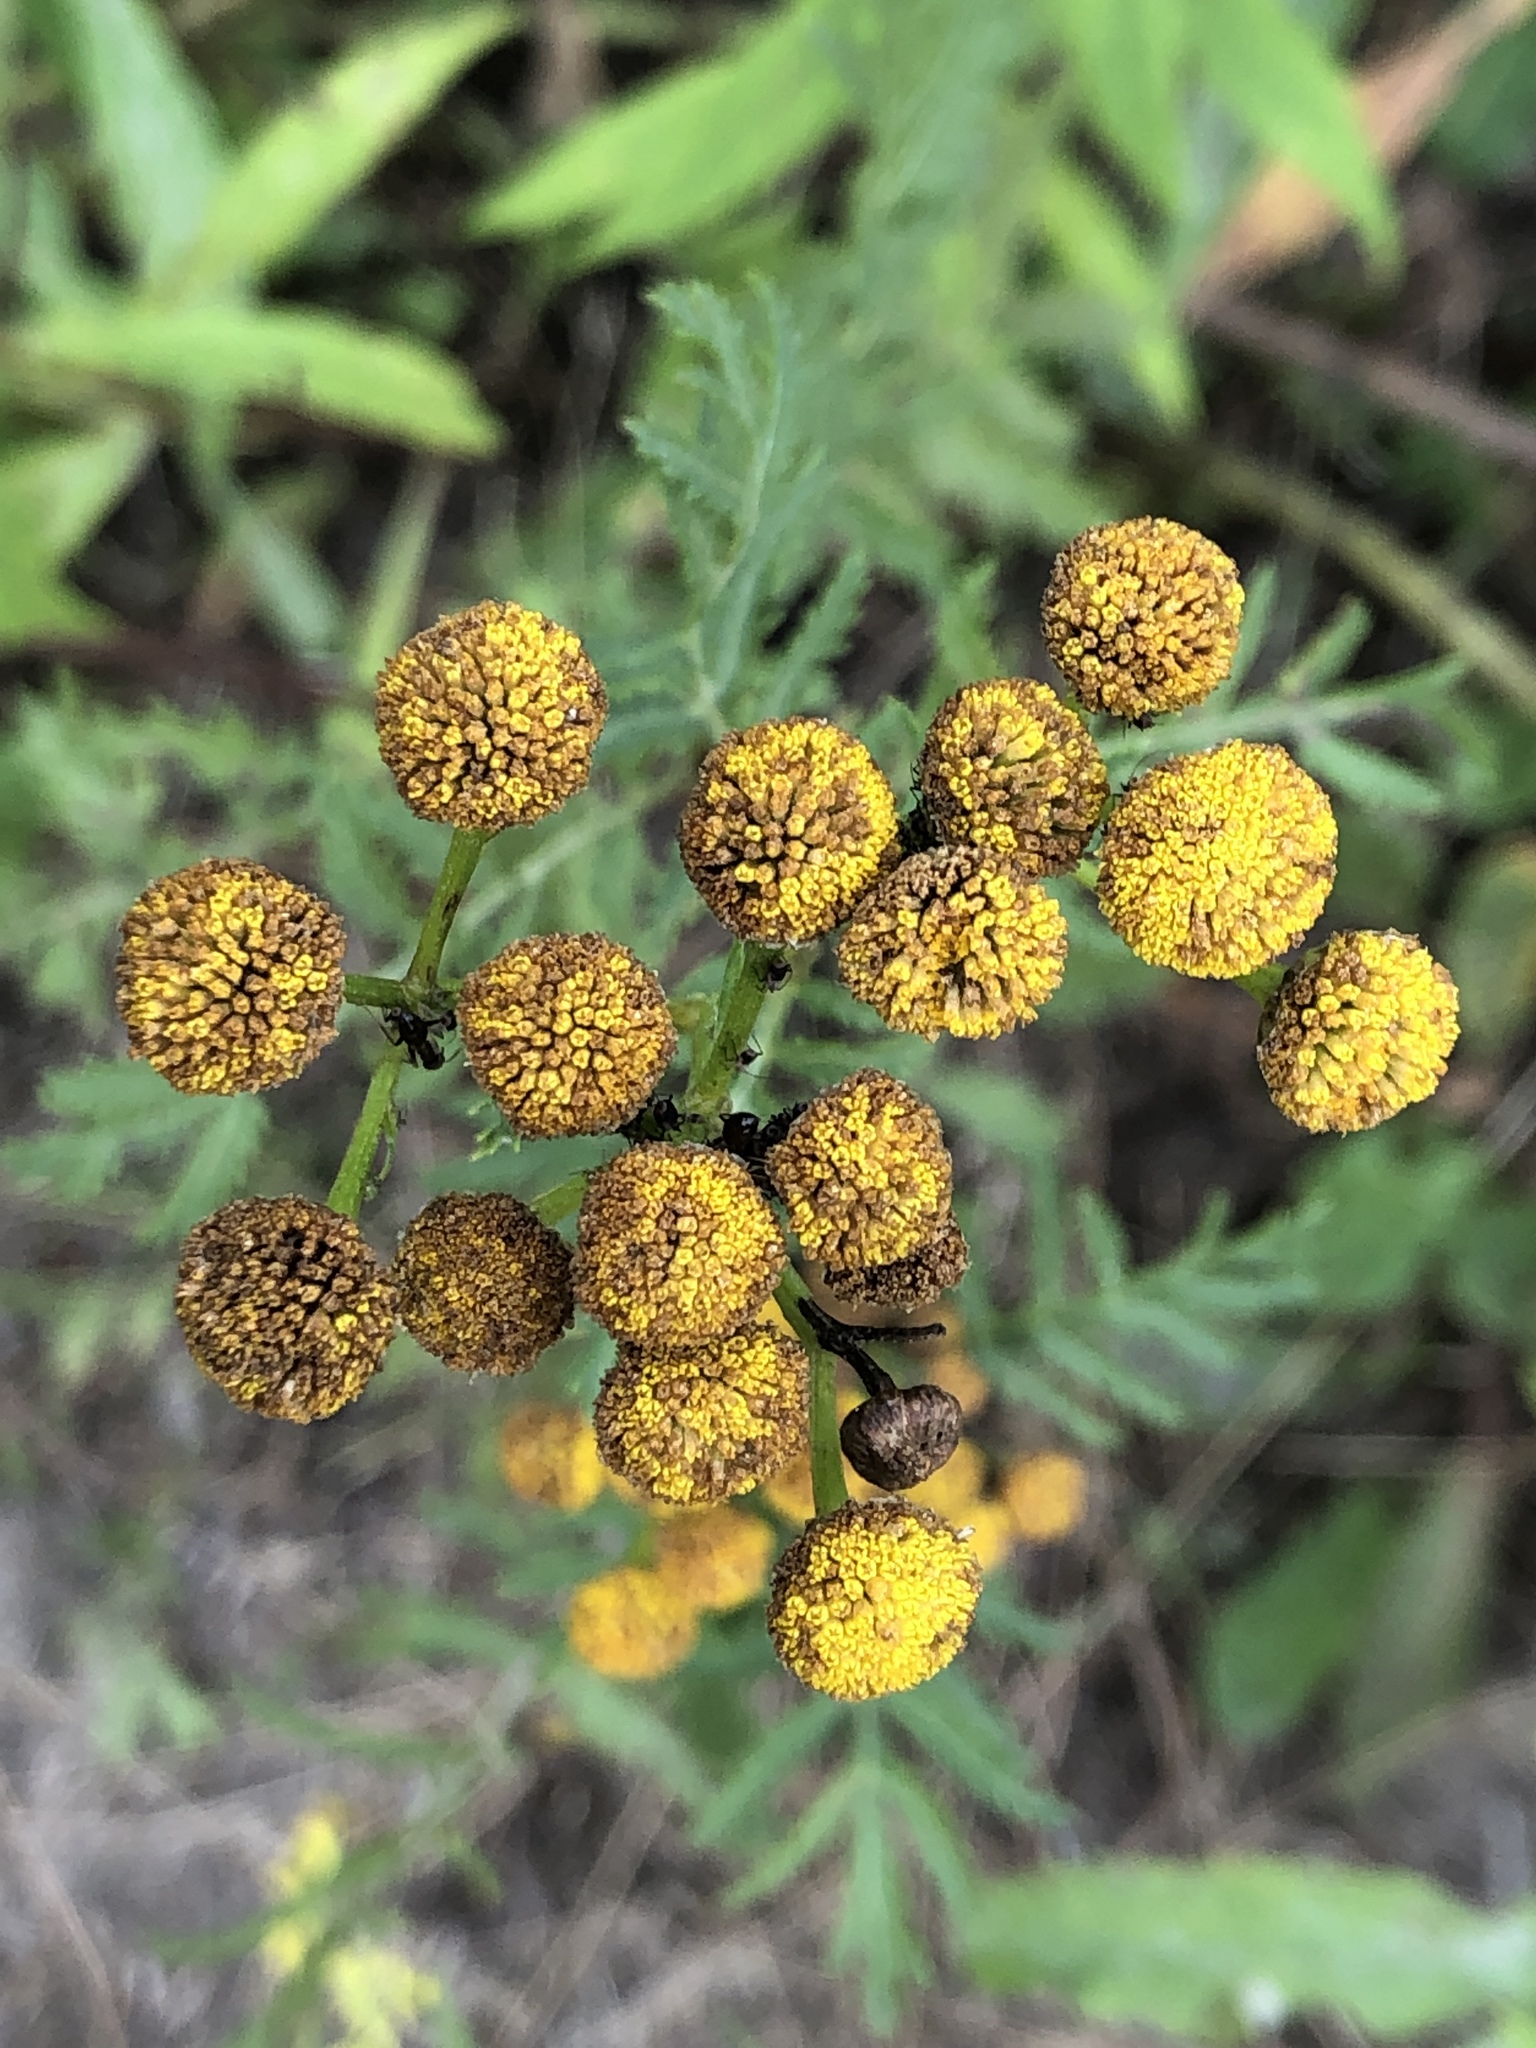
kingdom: Plantae
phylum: Tracheophyta
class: Magnoliopsida
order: Asterales
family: Asteraceae
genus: Tanacetum
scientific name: Tanacetum vulgare
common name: Common tansy
